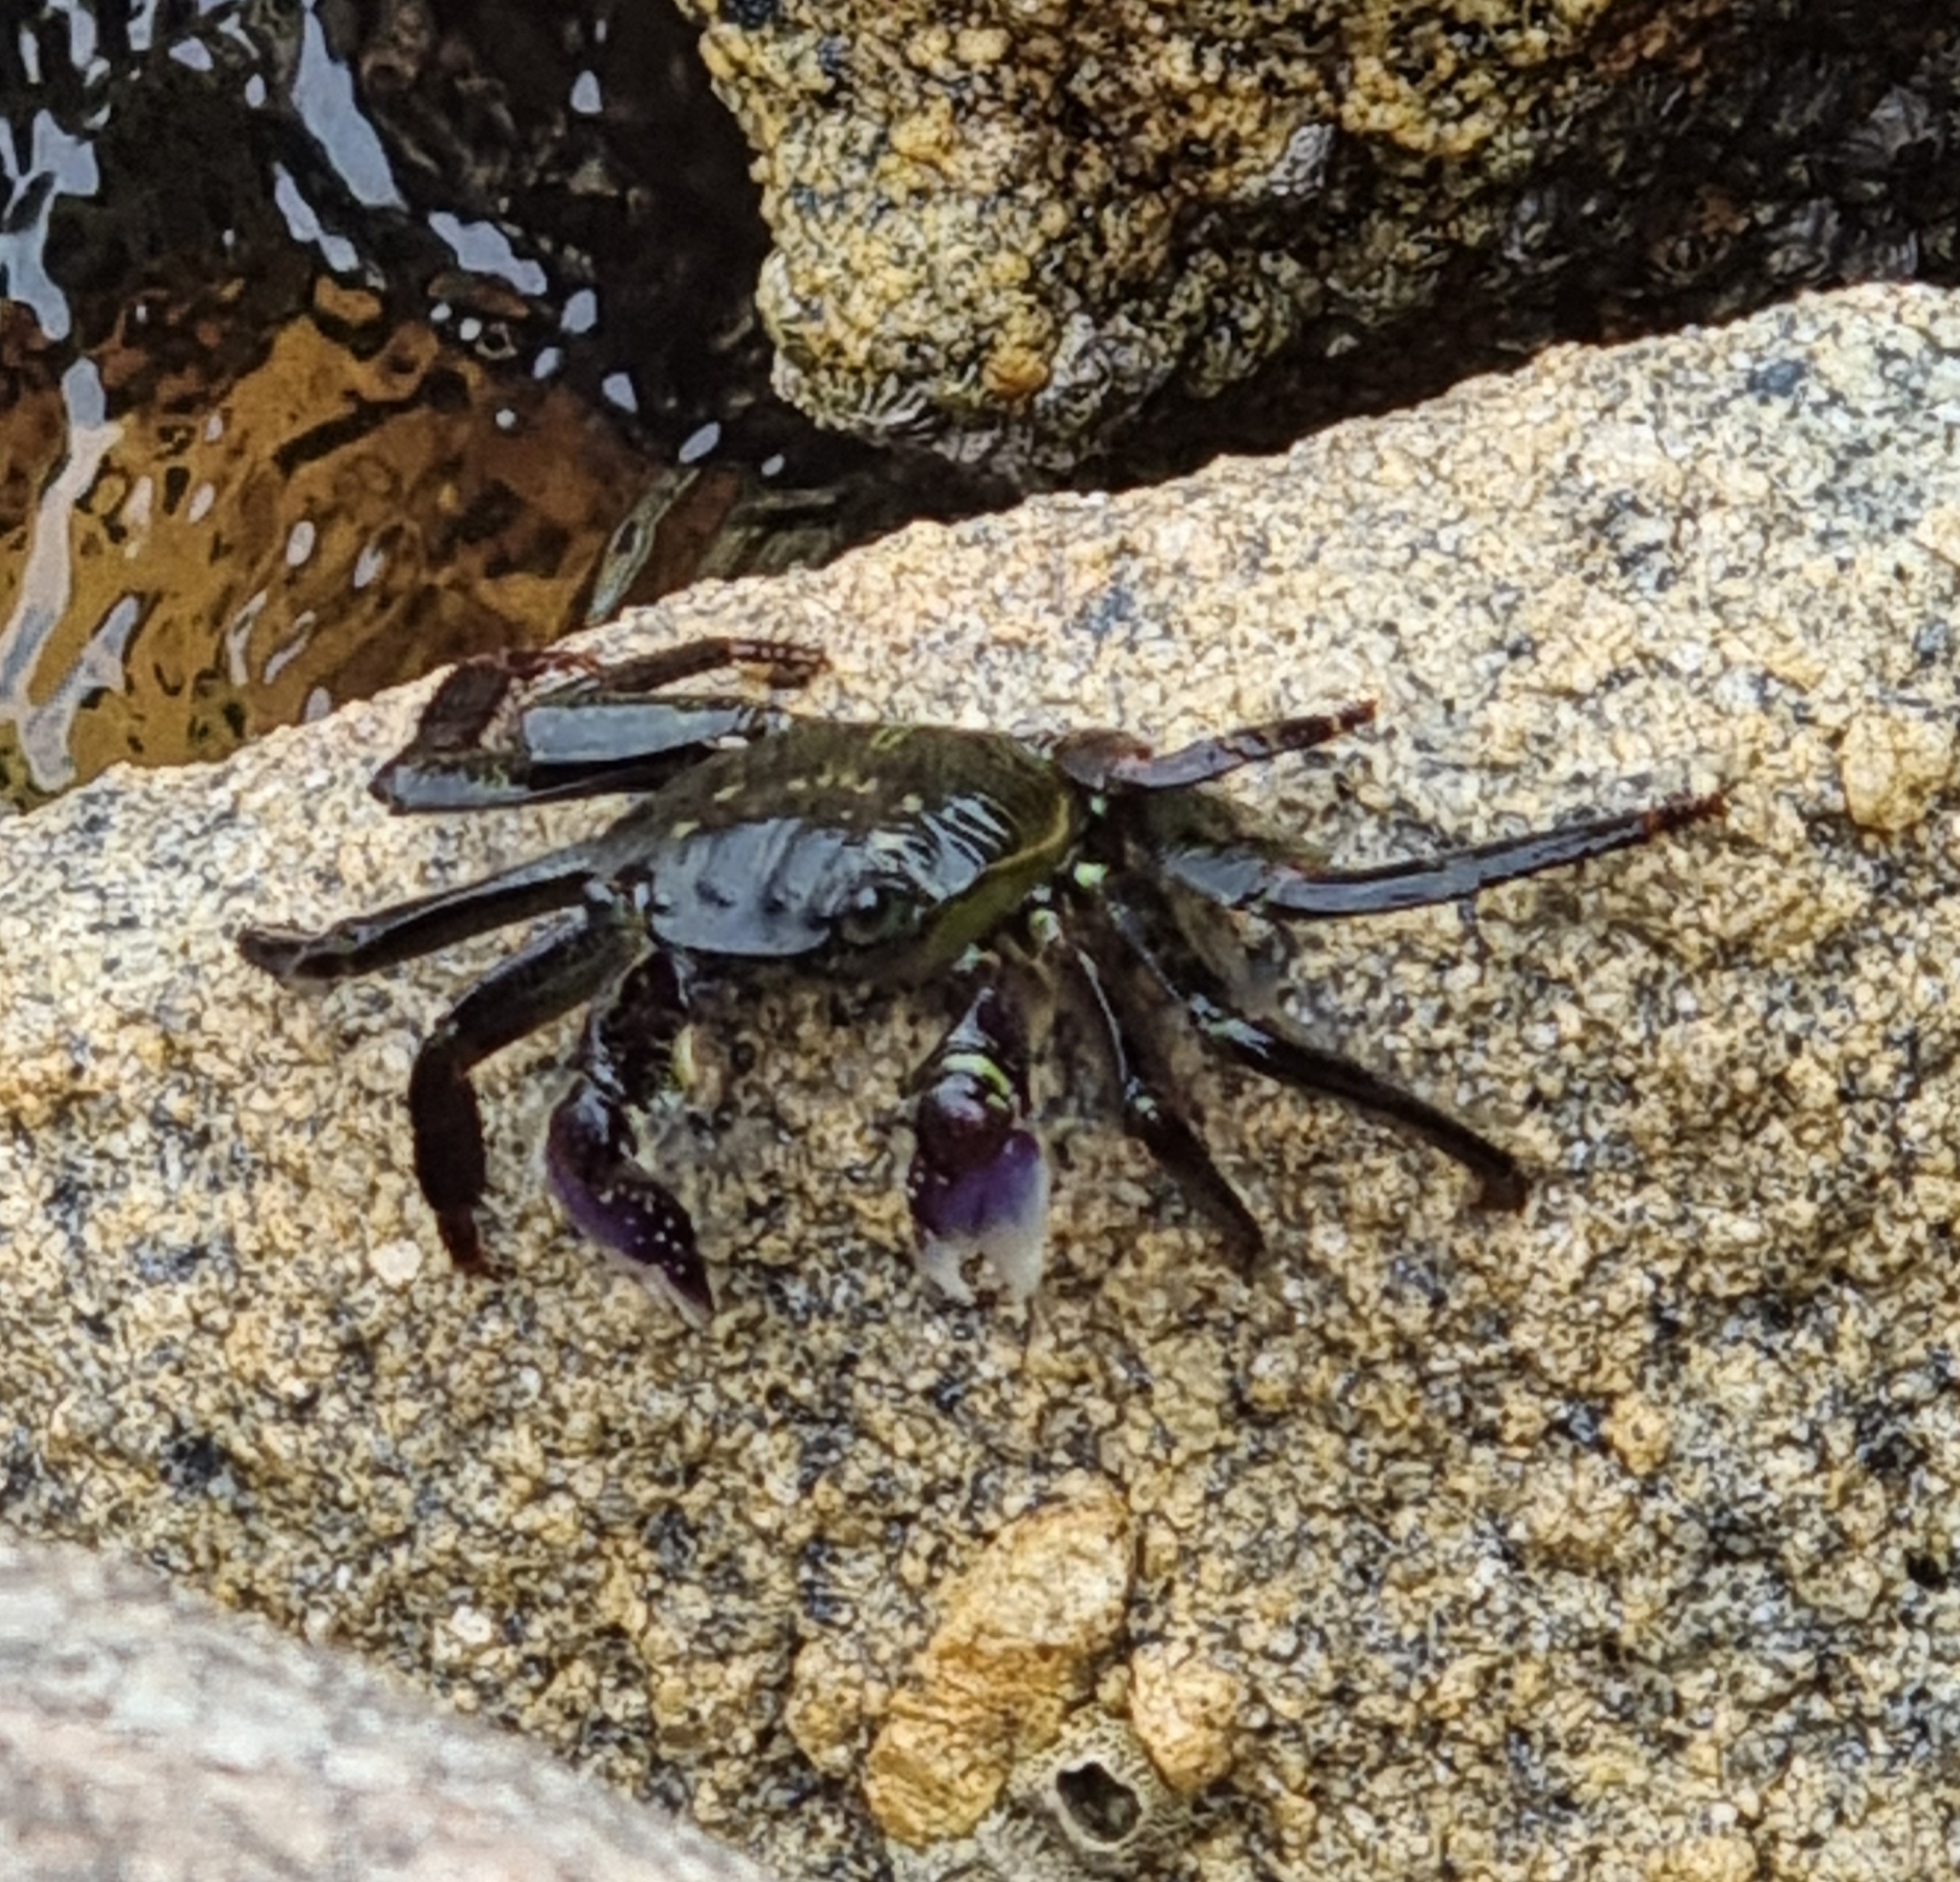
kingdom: Animalia
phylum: Arthropoda
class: Malacostraca
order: Decapoda
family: Grapsidae
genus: Leptograpsus
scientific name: Leptograpsus variegatus
